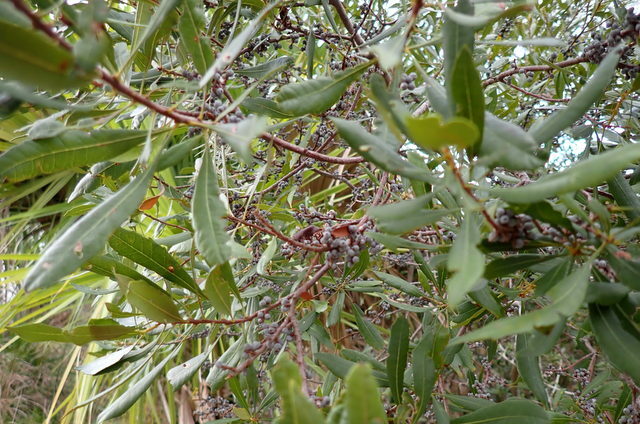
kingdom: Plantae
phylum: Tracheophyta
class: Magnoliopsida
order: Fagales
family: Myricaceae
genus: Morella
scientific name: Morella cerifera
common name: Wax myrtle
